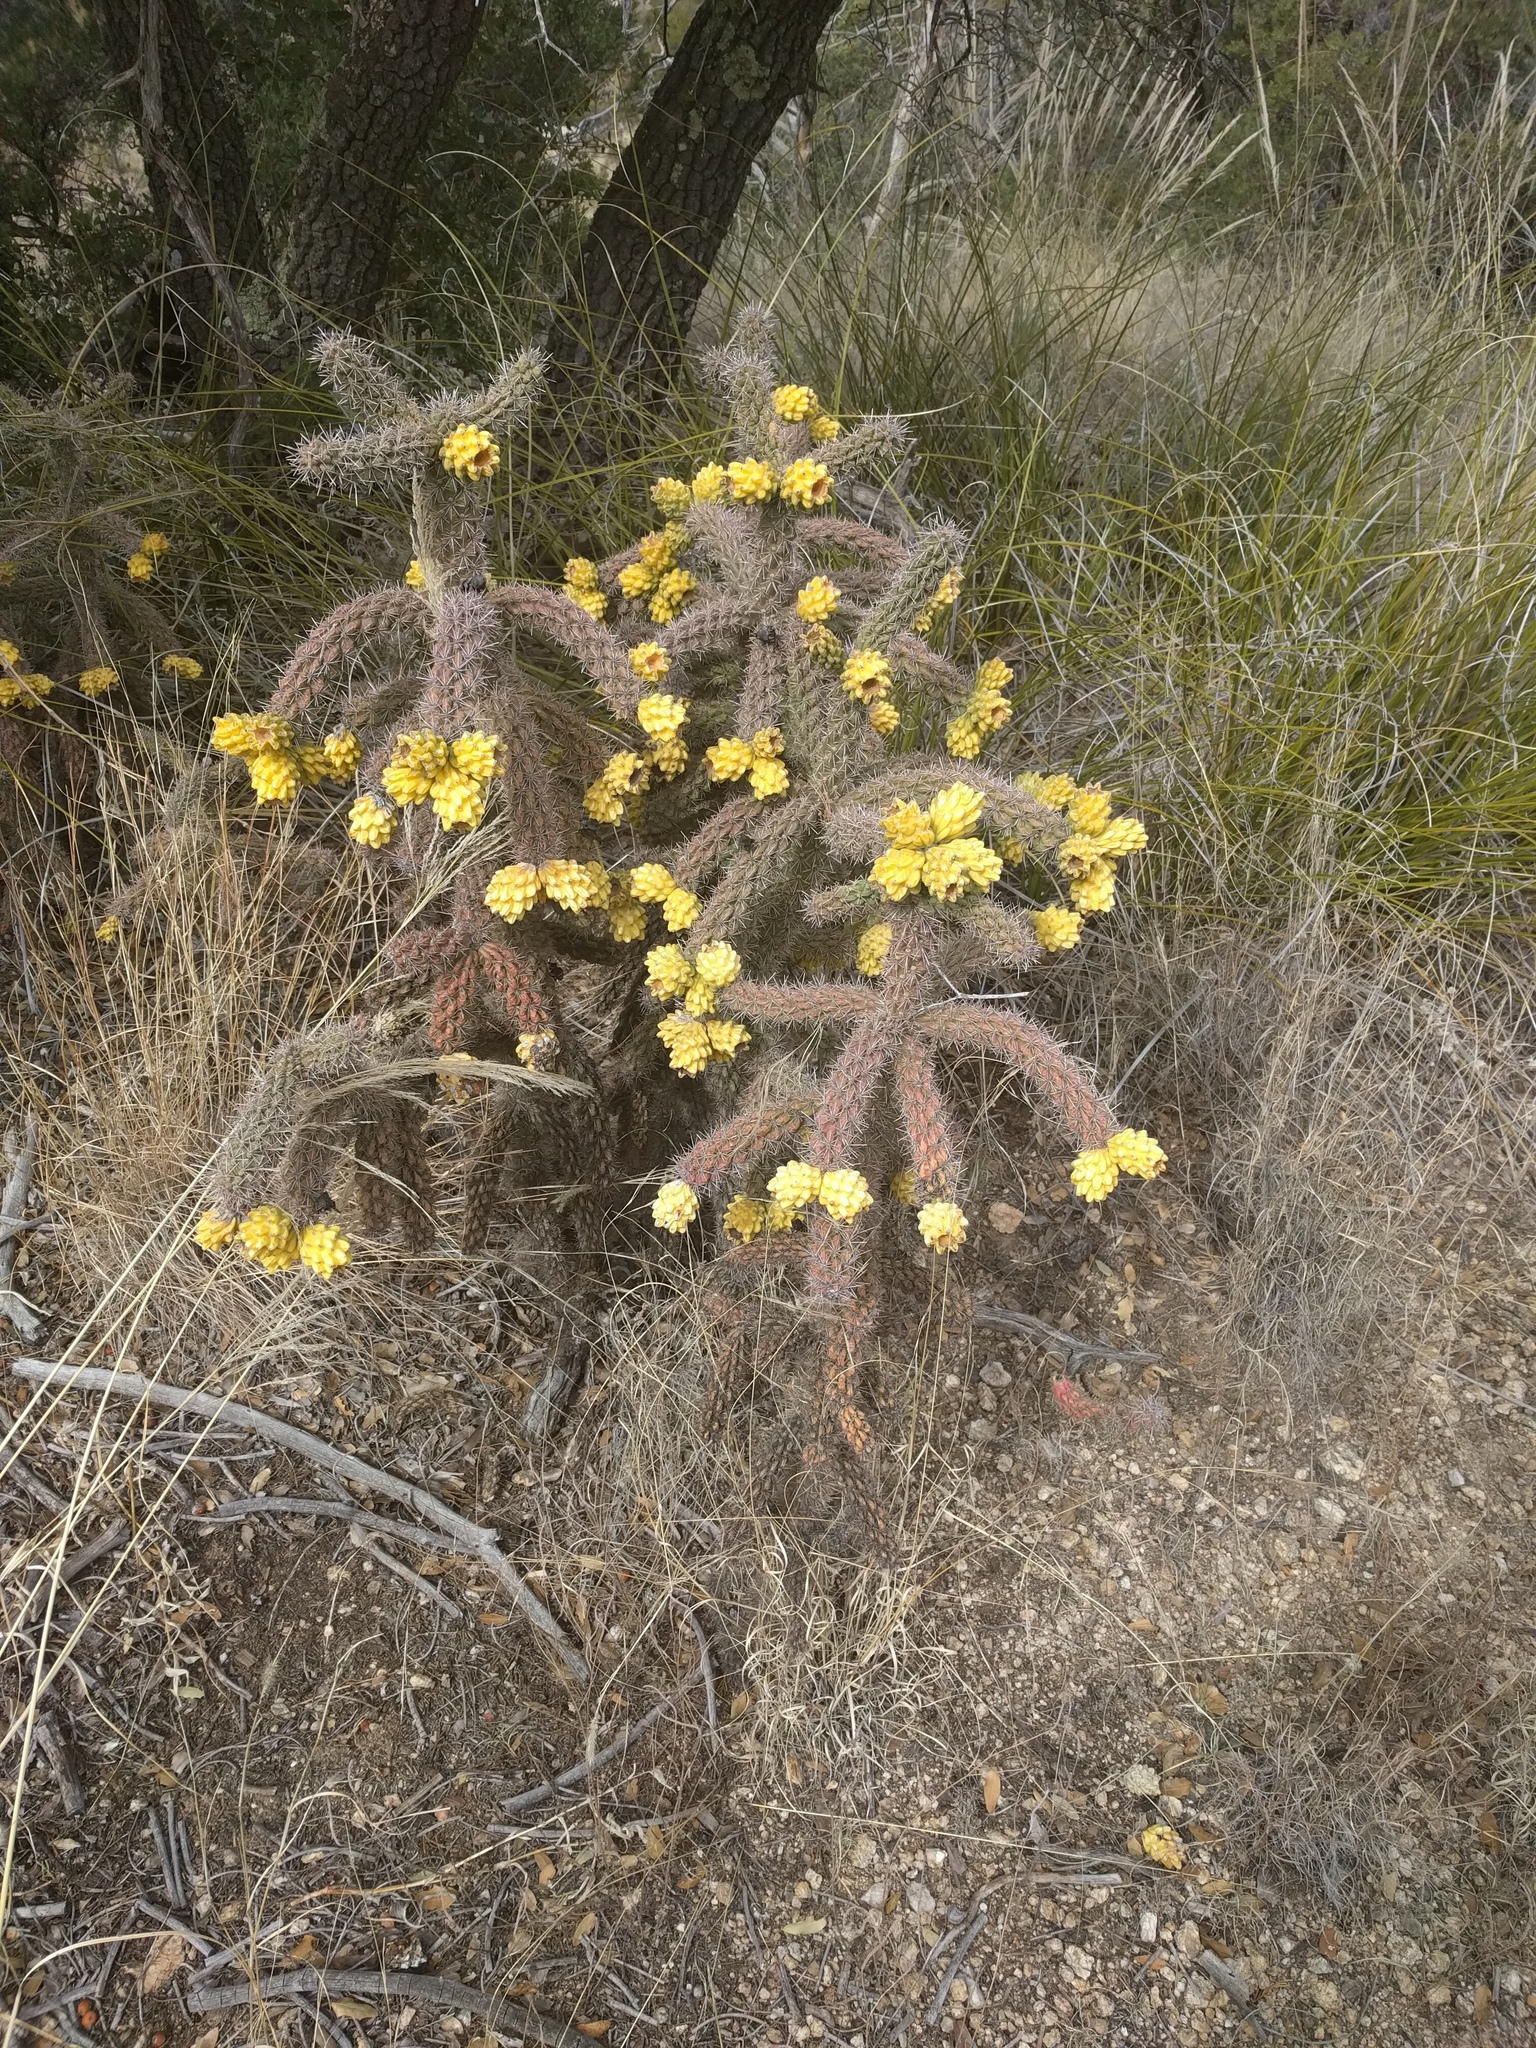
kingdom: Plantae
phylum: Tracheophyta
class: Magnoliopsida
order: Caryophyllales
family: Cactaceae
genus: Cylindropuntia
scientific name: Cylindropuntia imbricata
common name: Candelabrum cactus
